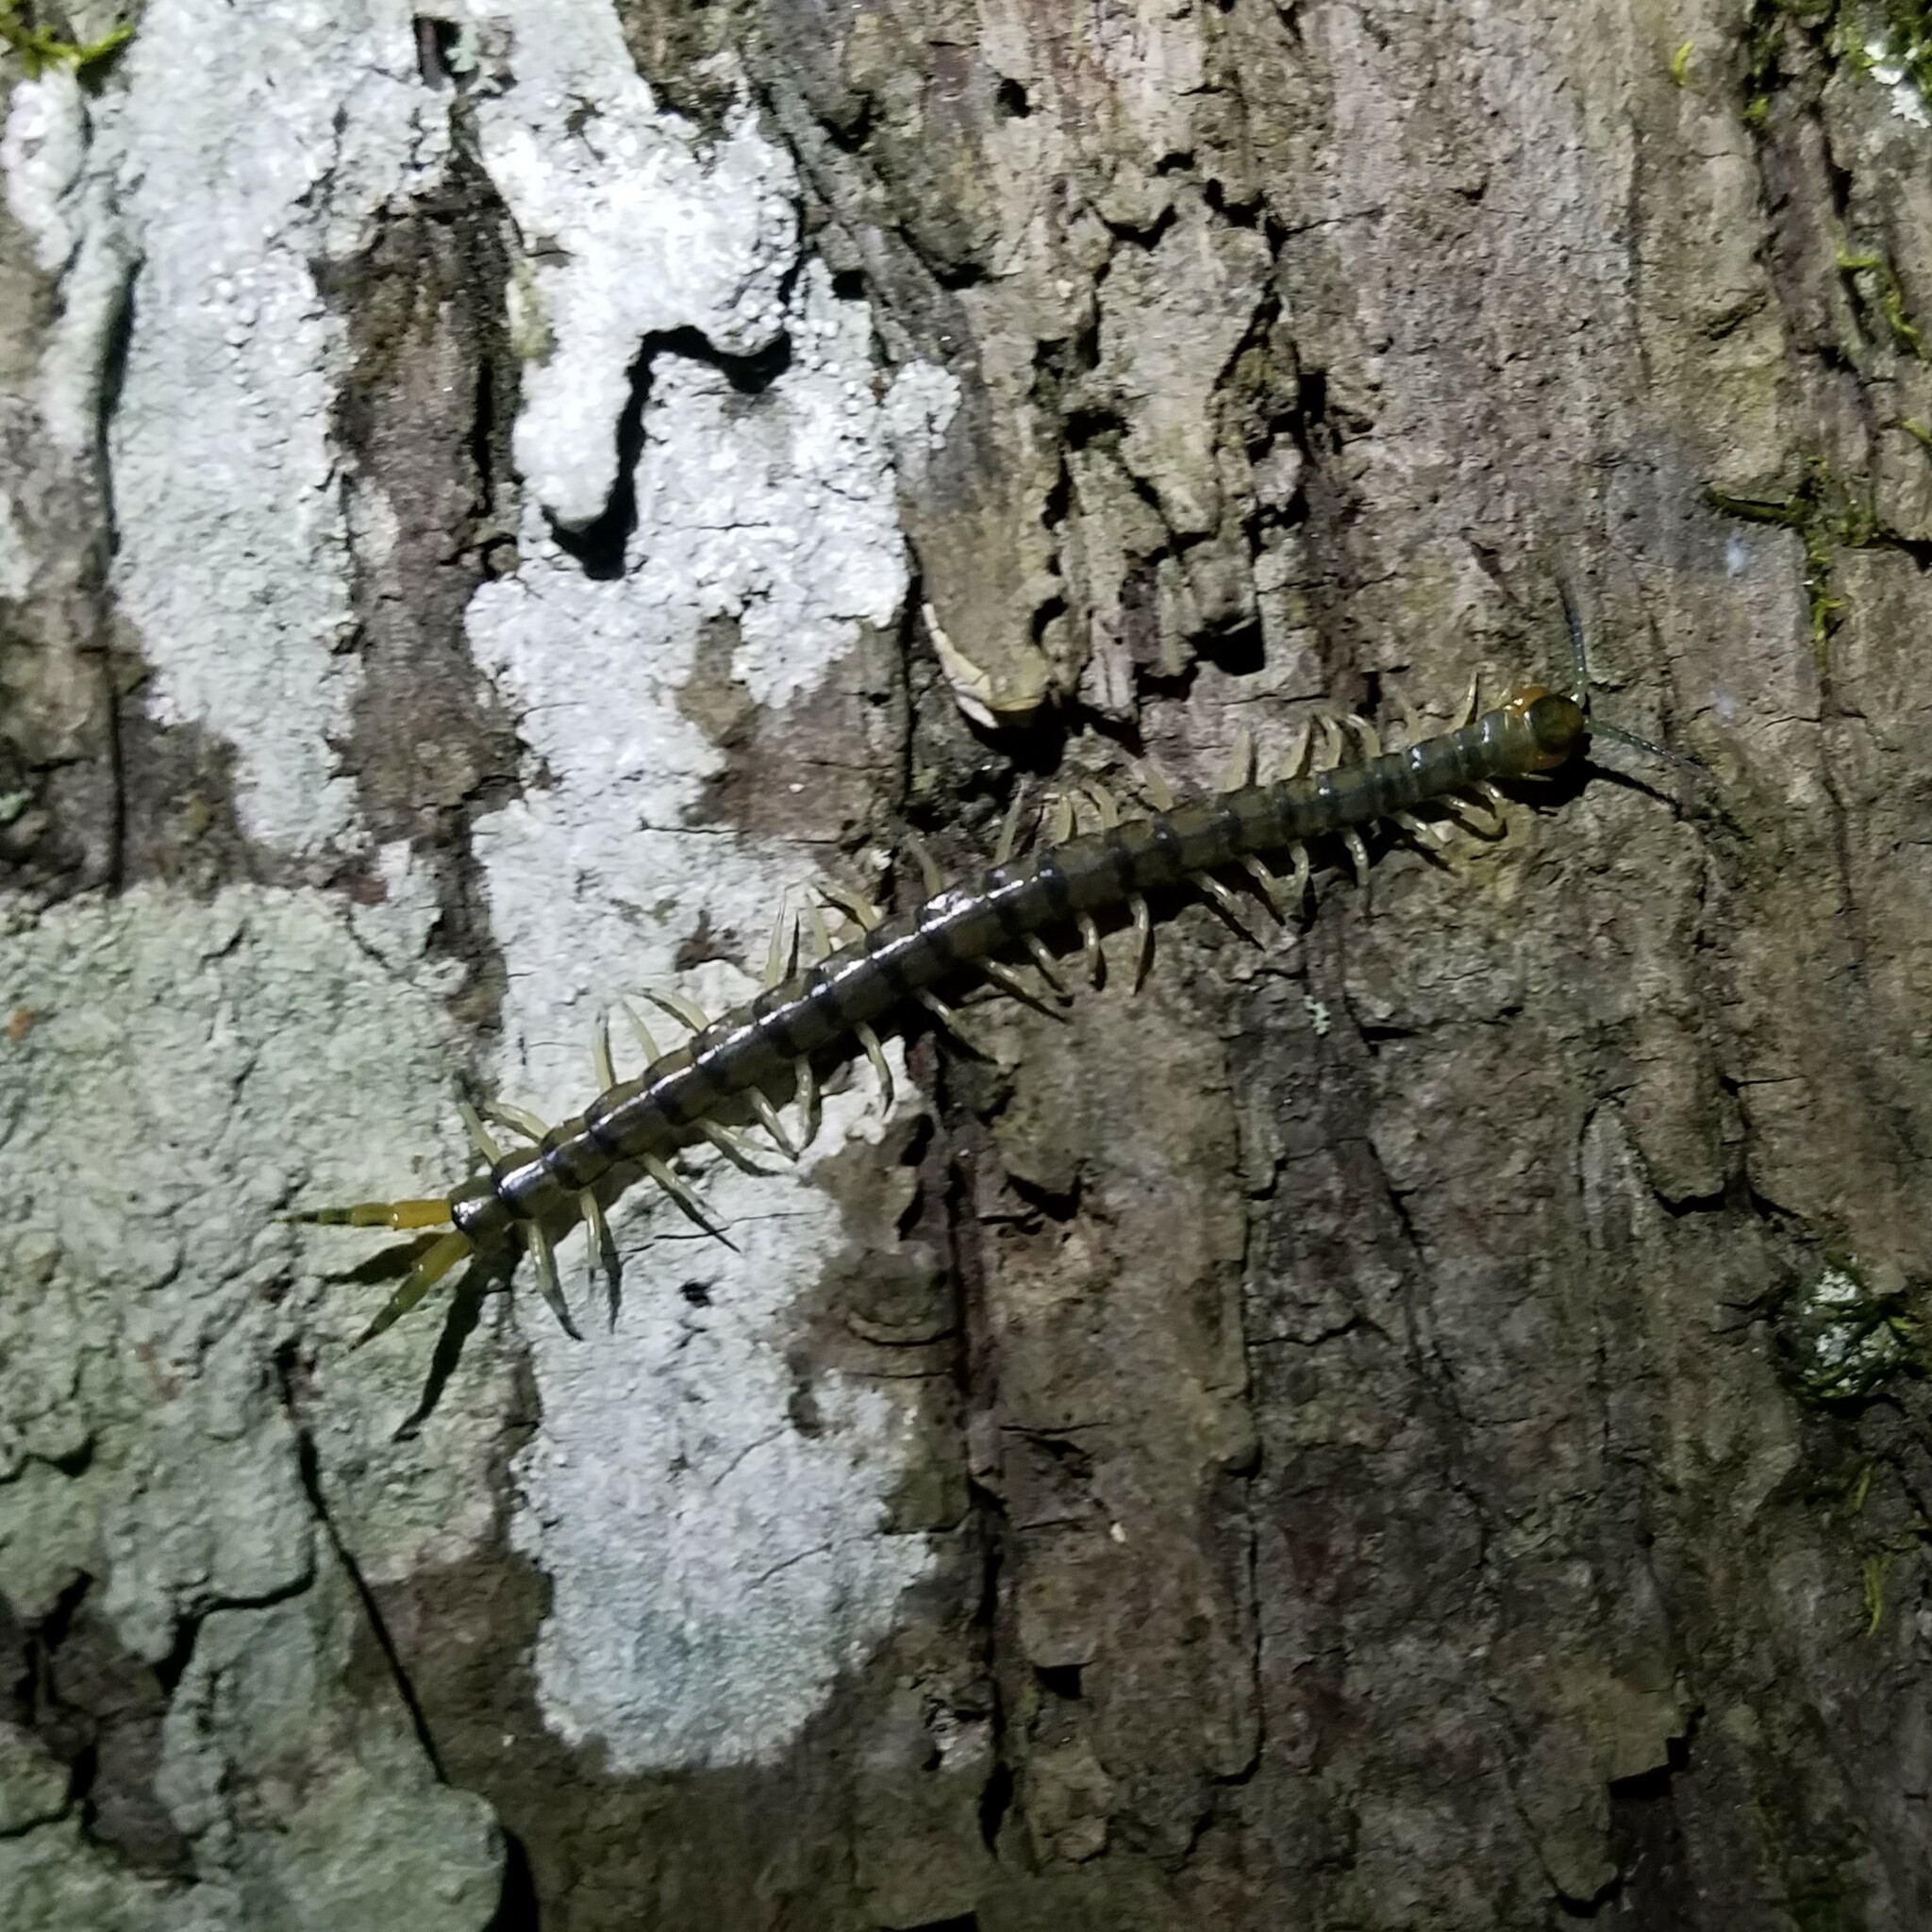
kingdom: Animalia
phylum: Arthropoda
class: Chilopoda
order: Scolopendromorpha
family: Scolopendridae
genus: Hemiscolopendra
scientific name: Hemiscolopendra marginata
